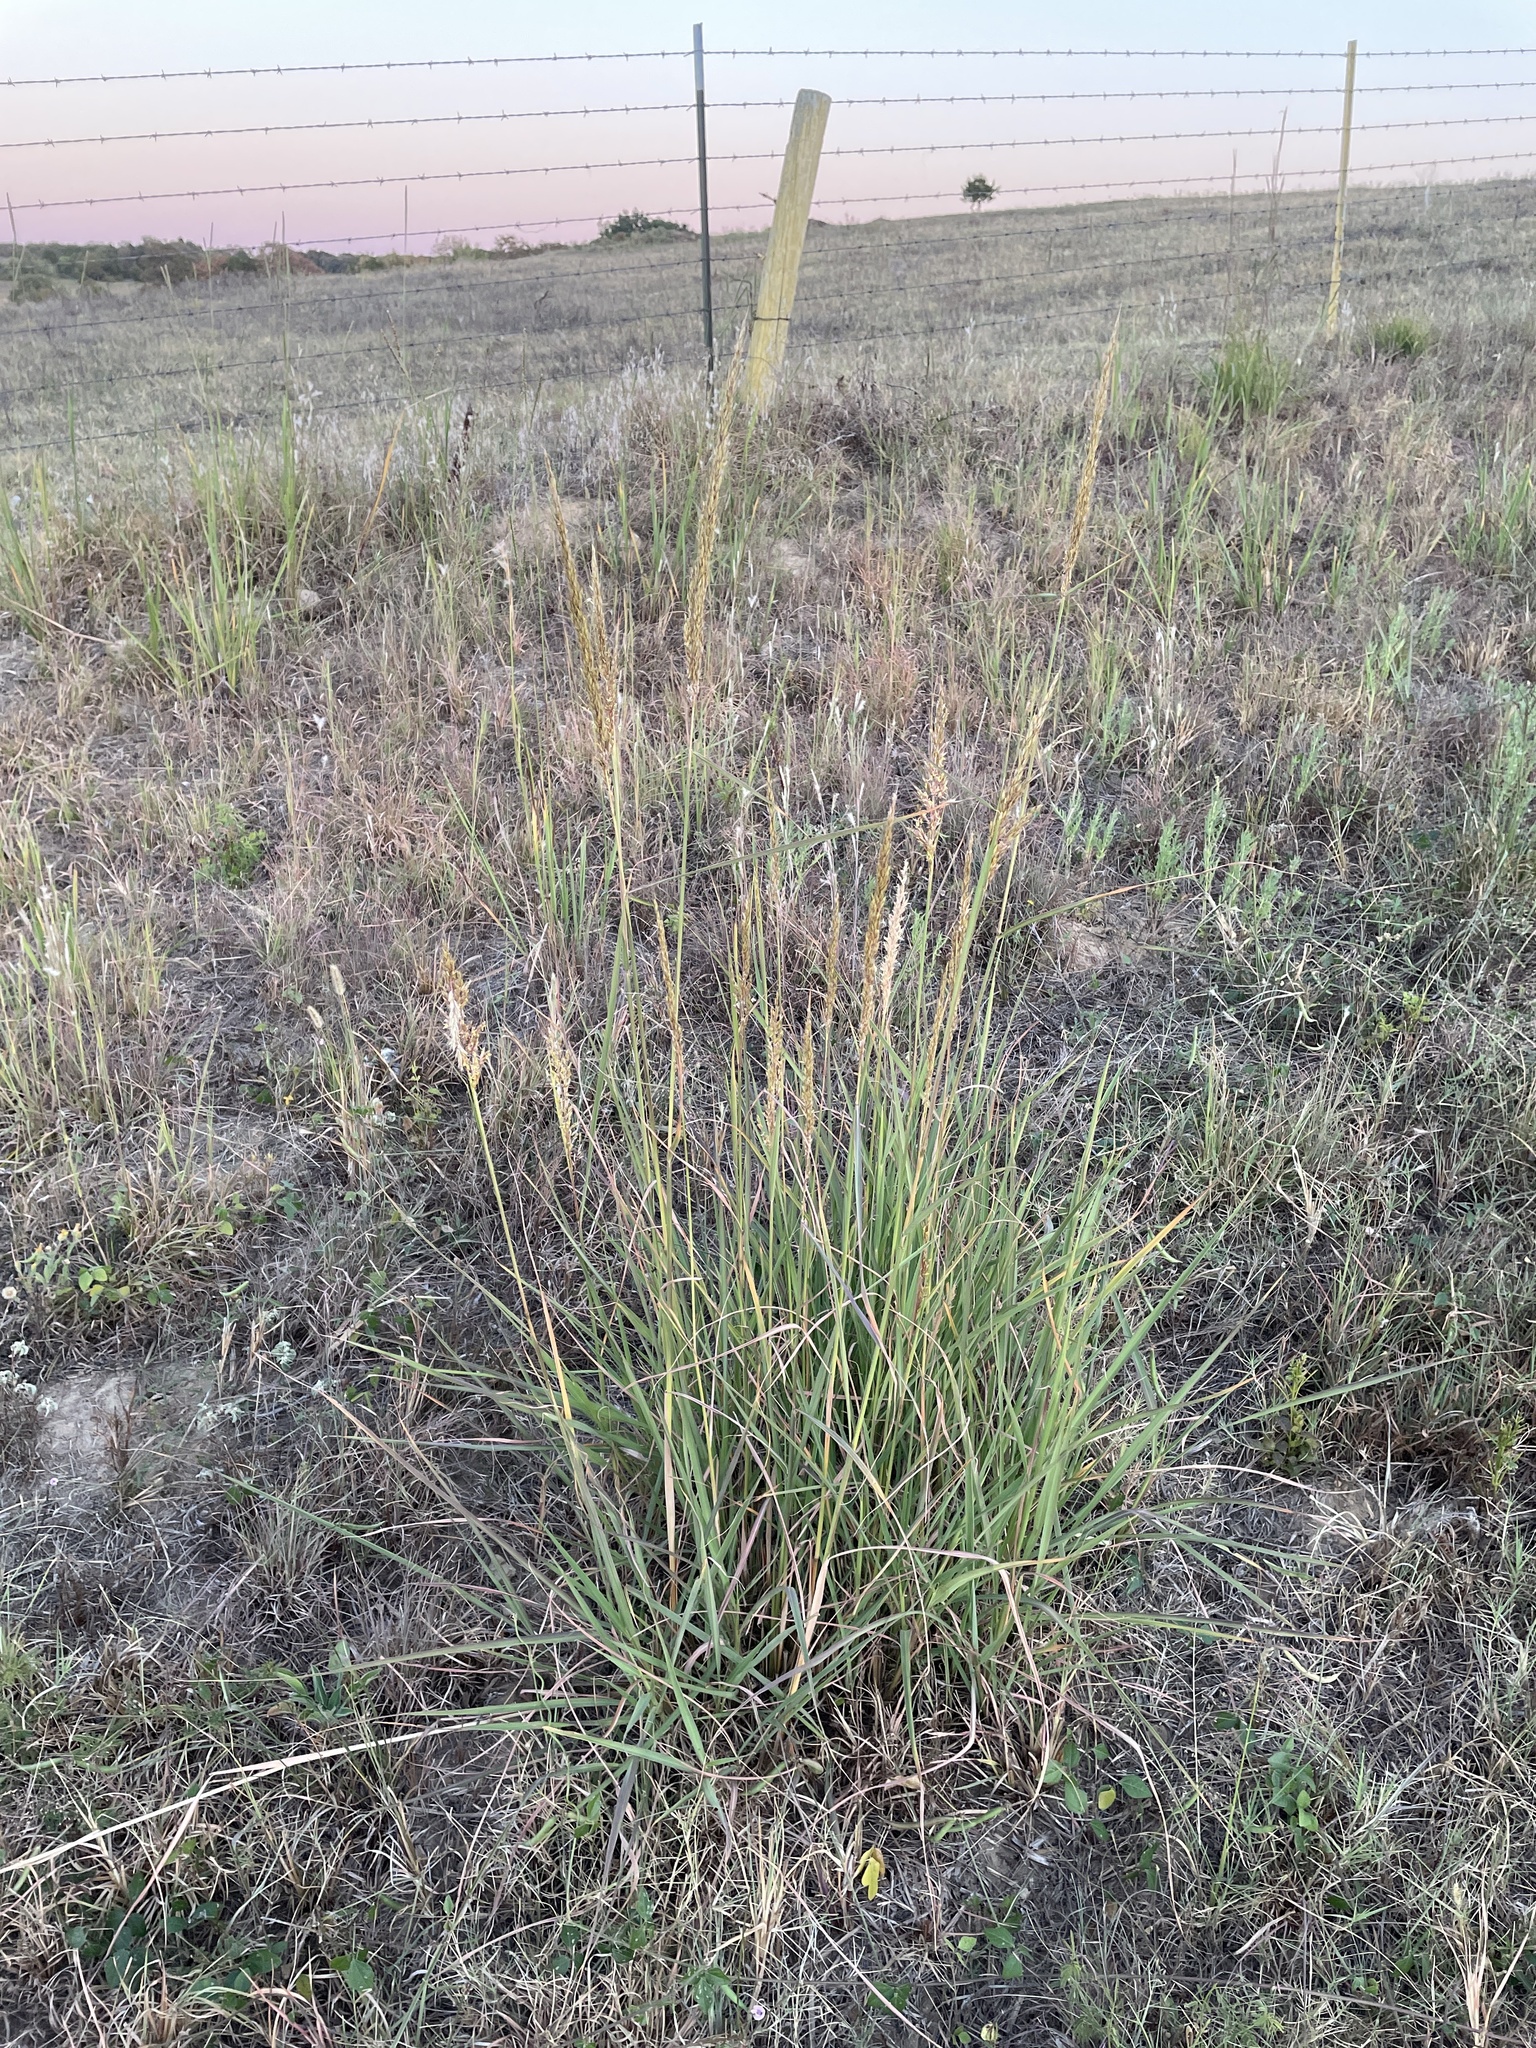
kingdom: Plantae
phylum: Tracheophyta
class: Liliopsida
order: Poales
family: Poaceae
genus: Sorghastrum
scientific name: Sorghastrum nutans
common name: Indian grass
